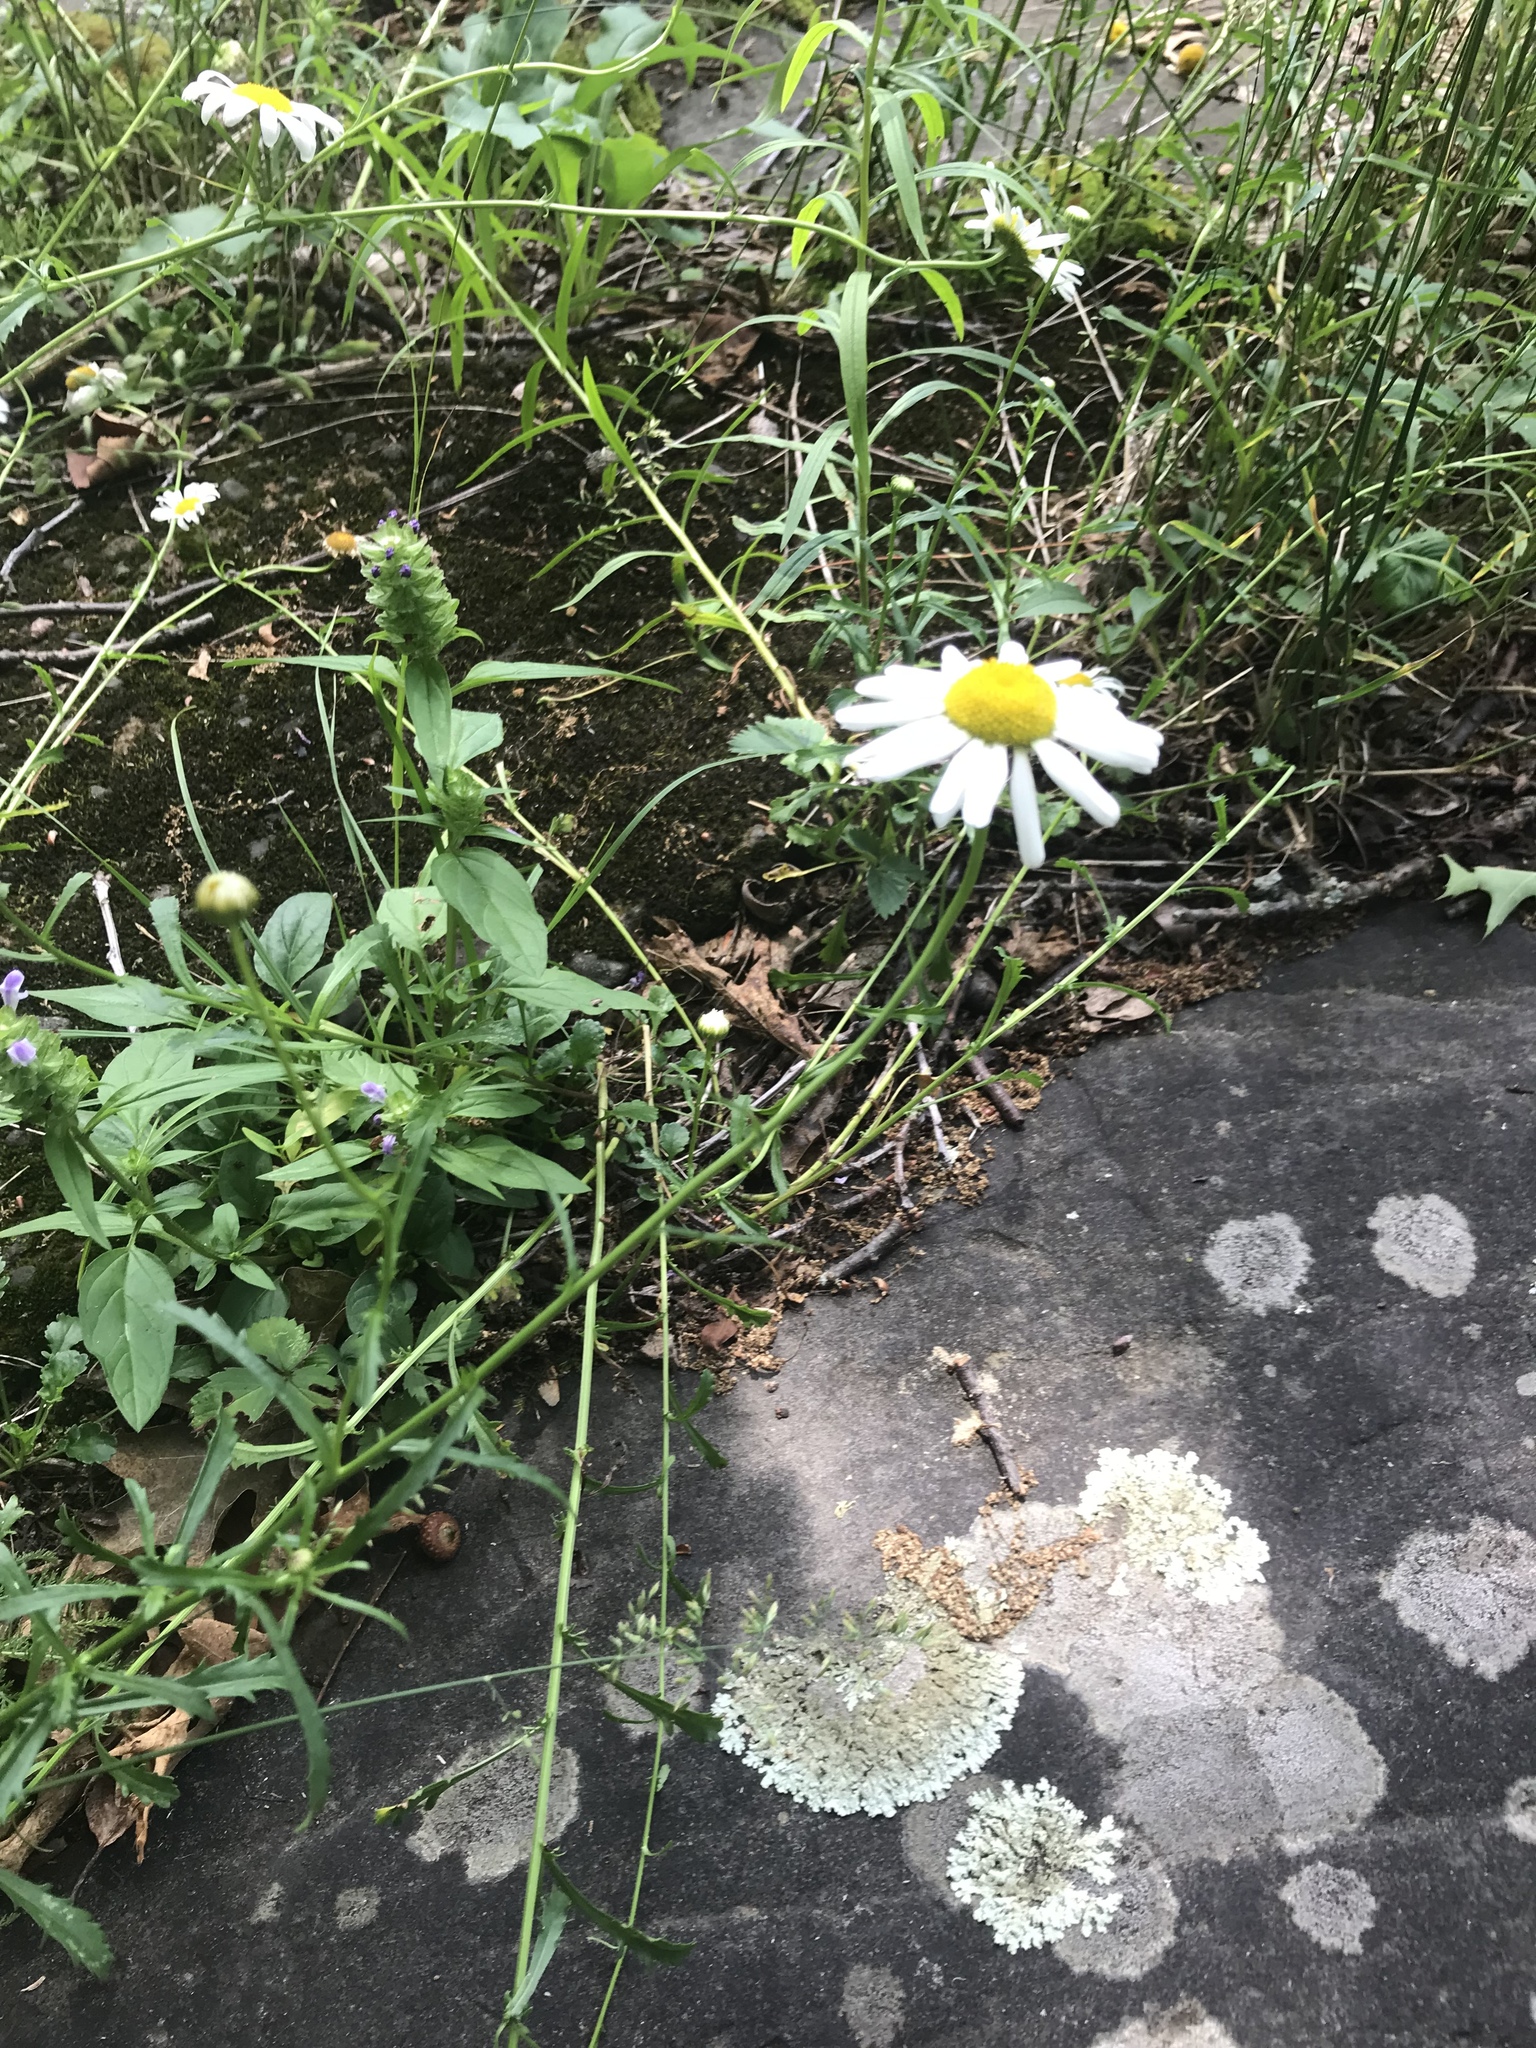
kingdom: Plantae
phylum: Tracheophyta
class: Magnoliopsida
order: Asterales
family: Asteraceae
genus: Leucanthemum
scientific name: Leucanthemum vulgare
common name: Oxeye daisy
